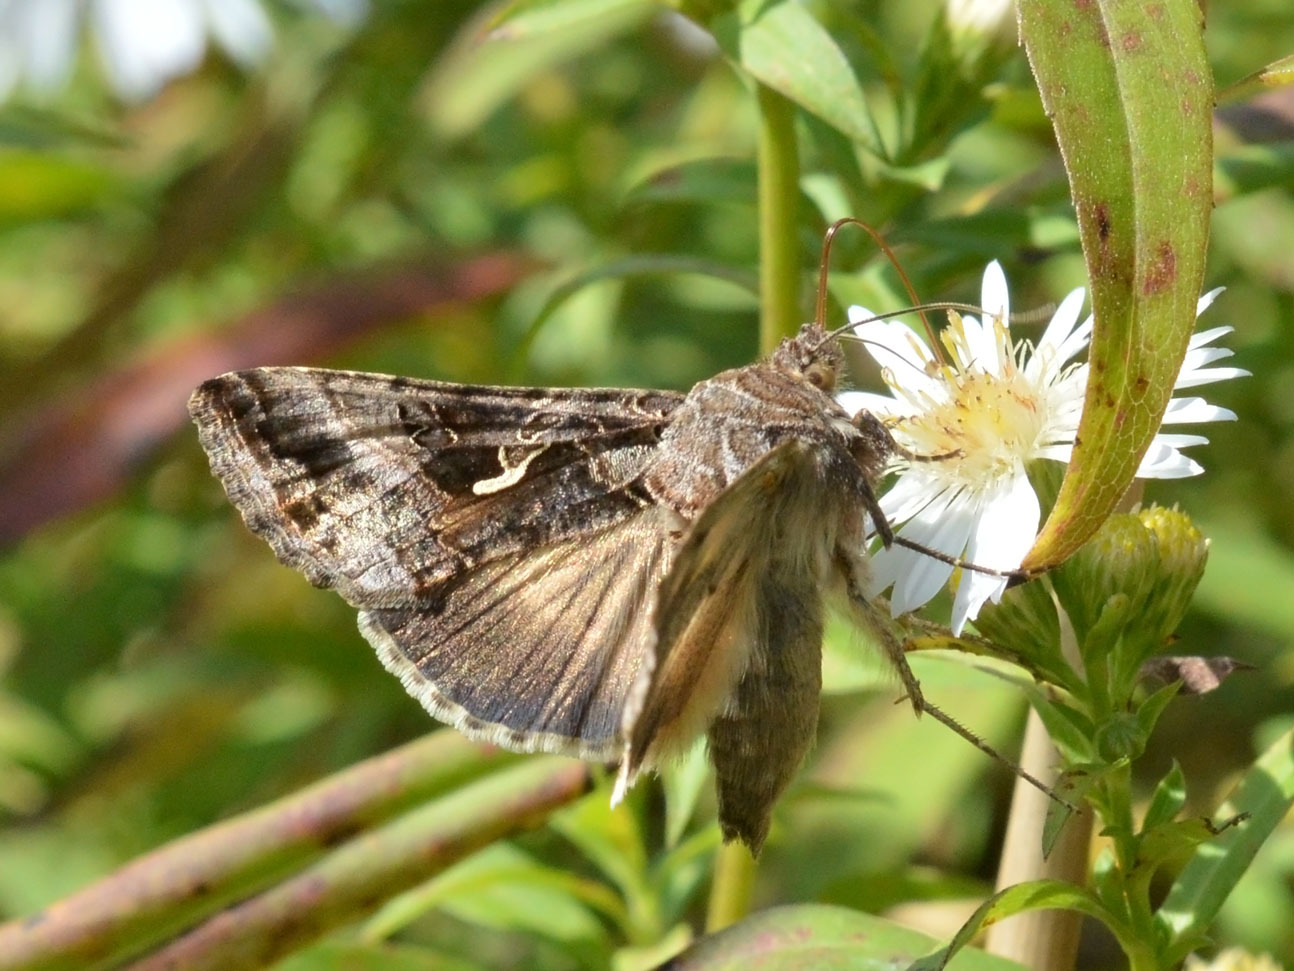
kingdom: Animalia
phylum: Arthropoda
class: Insecta
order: Lepidoptera
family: Noctuidae
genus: Autographa
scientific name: Autographa gamma
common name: Silver y
